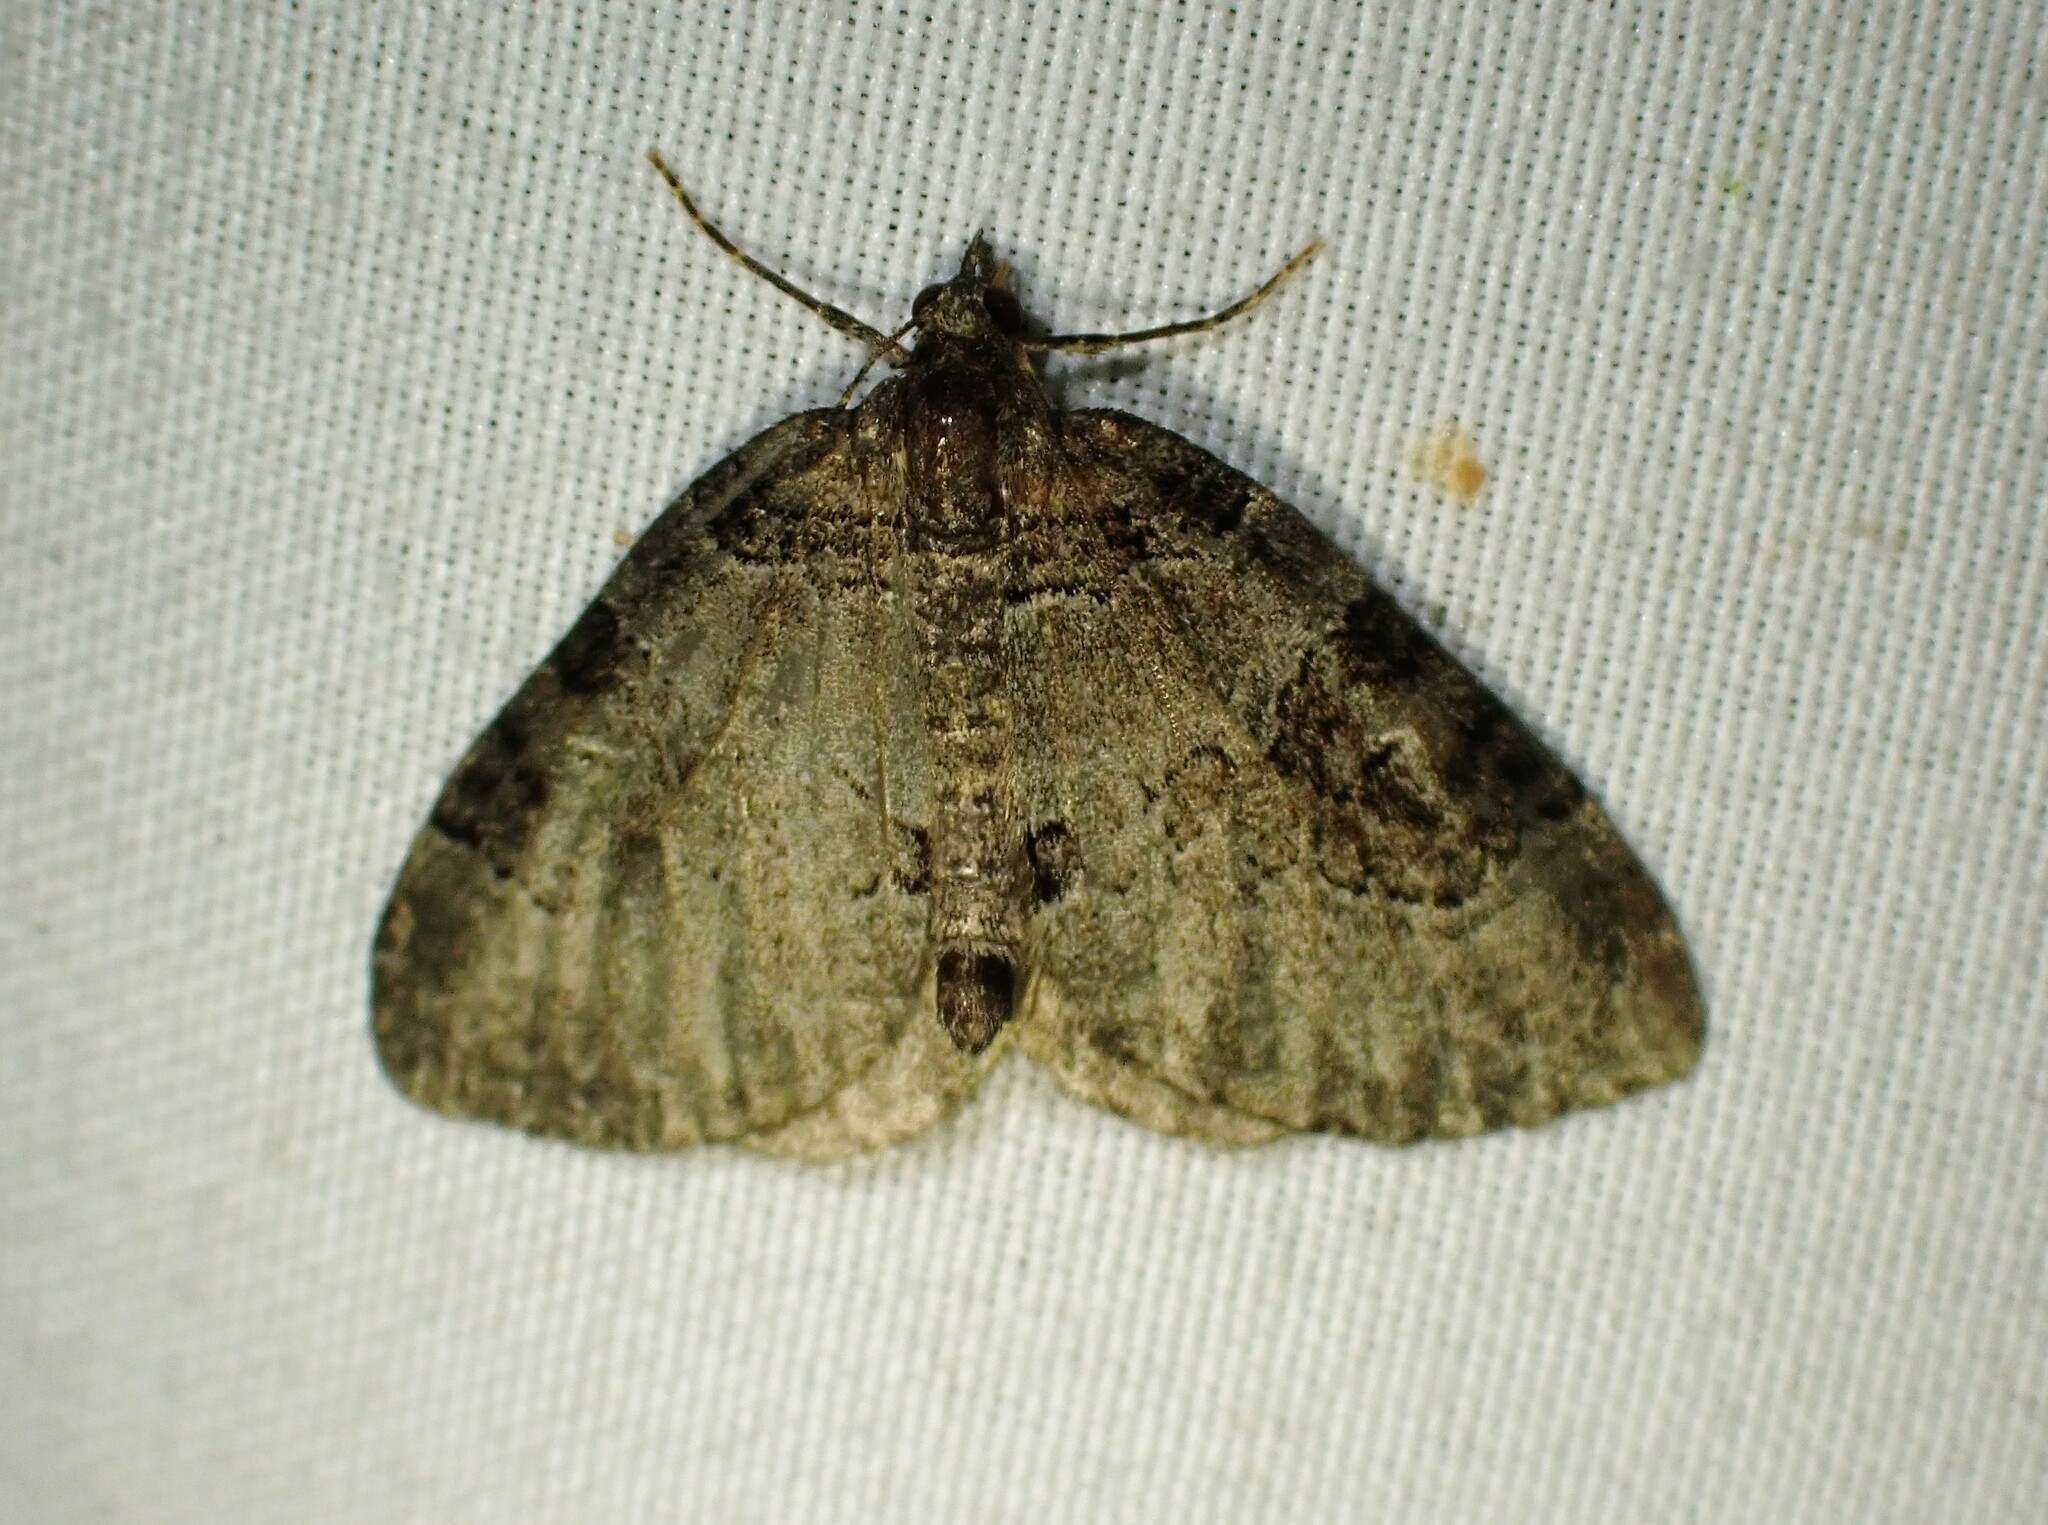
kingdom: Animalia
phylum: Arthropoda
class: Insecta
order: Lepidoptera
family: Geometridae
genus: Plemyria
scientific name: Plemyria georgii
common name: George's carpet moth
